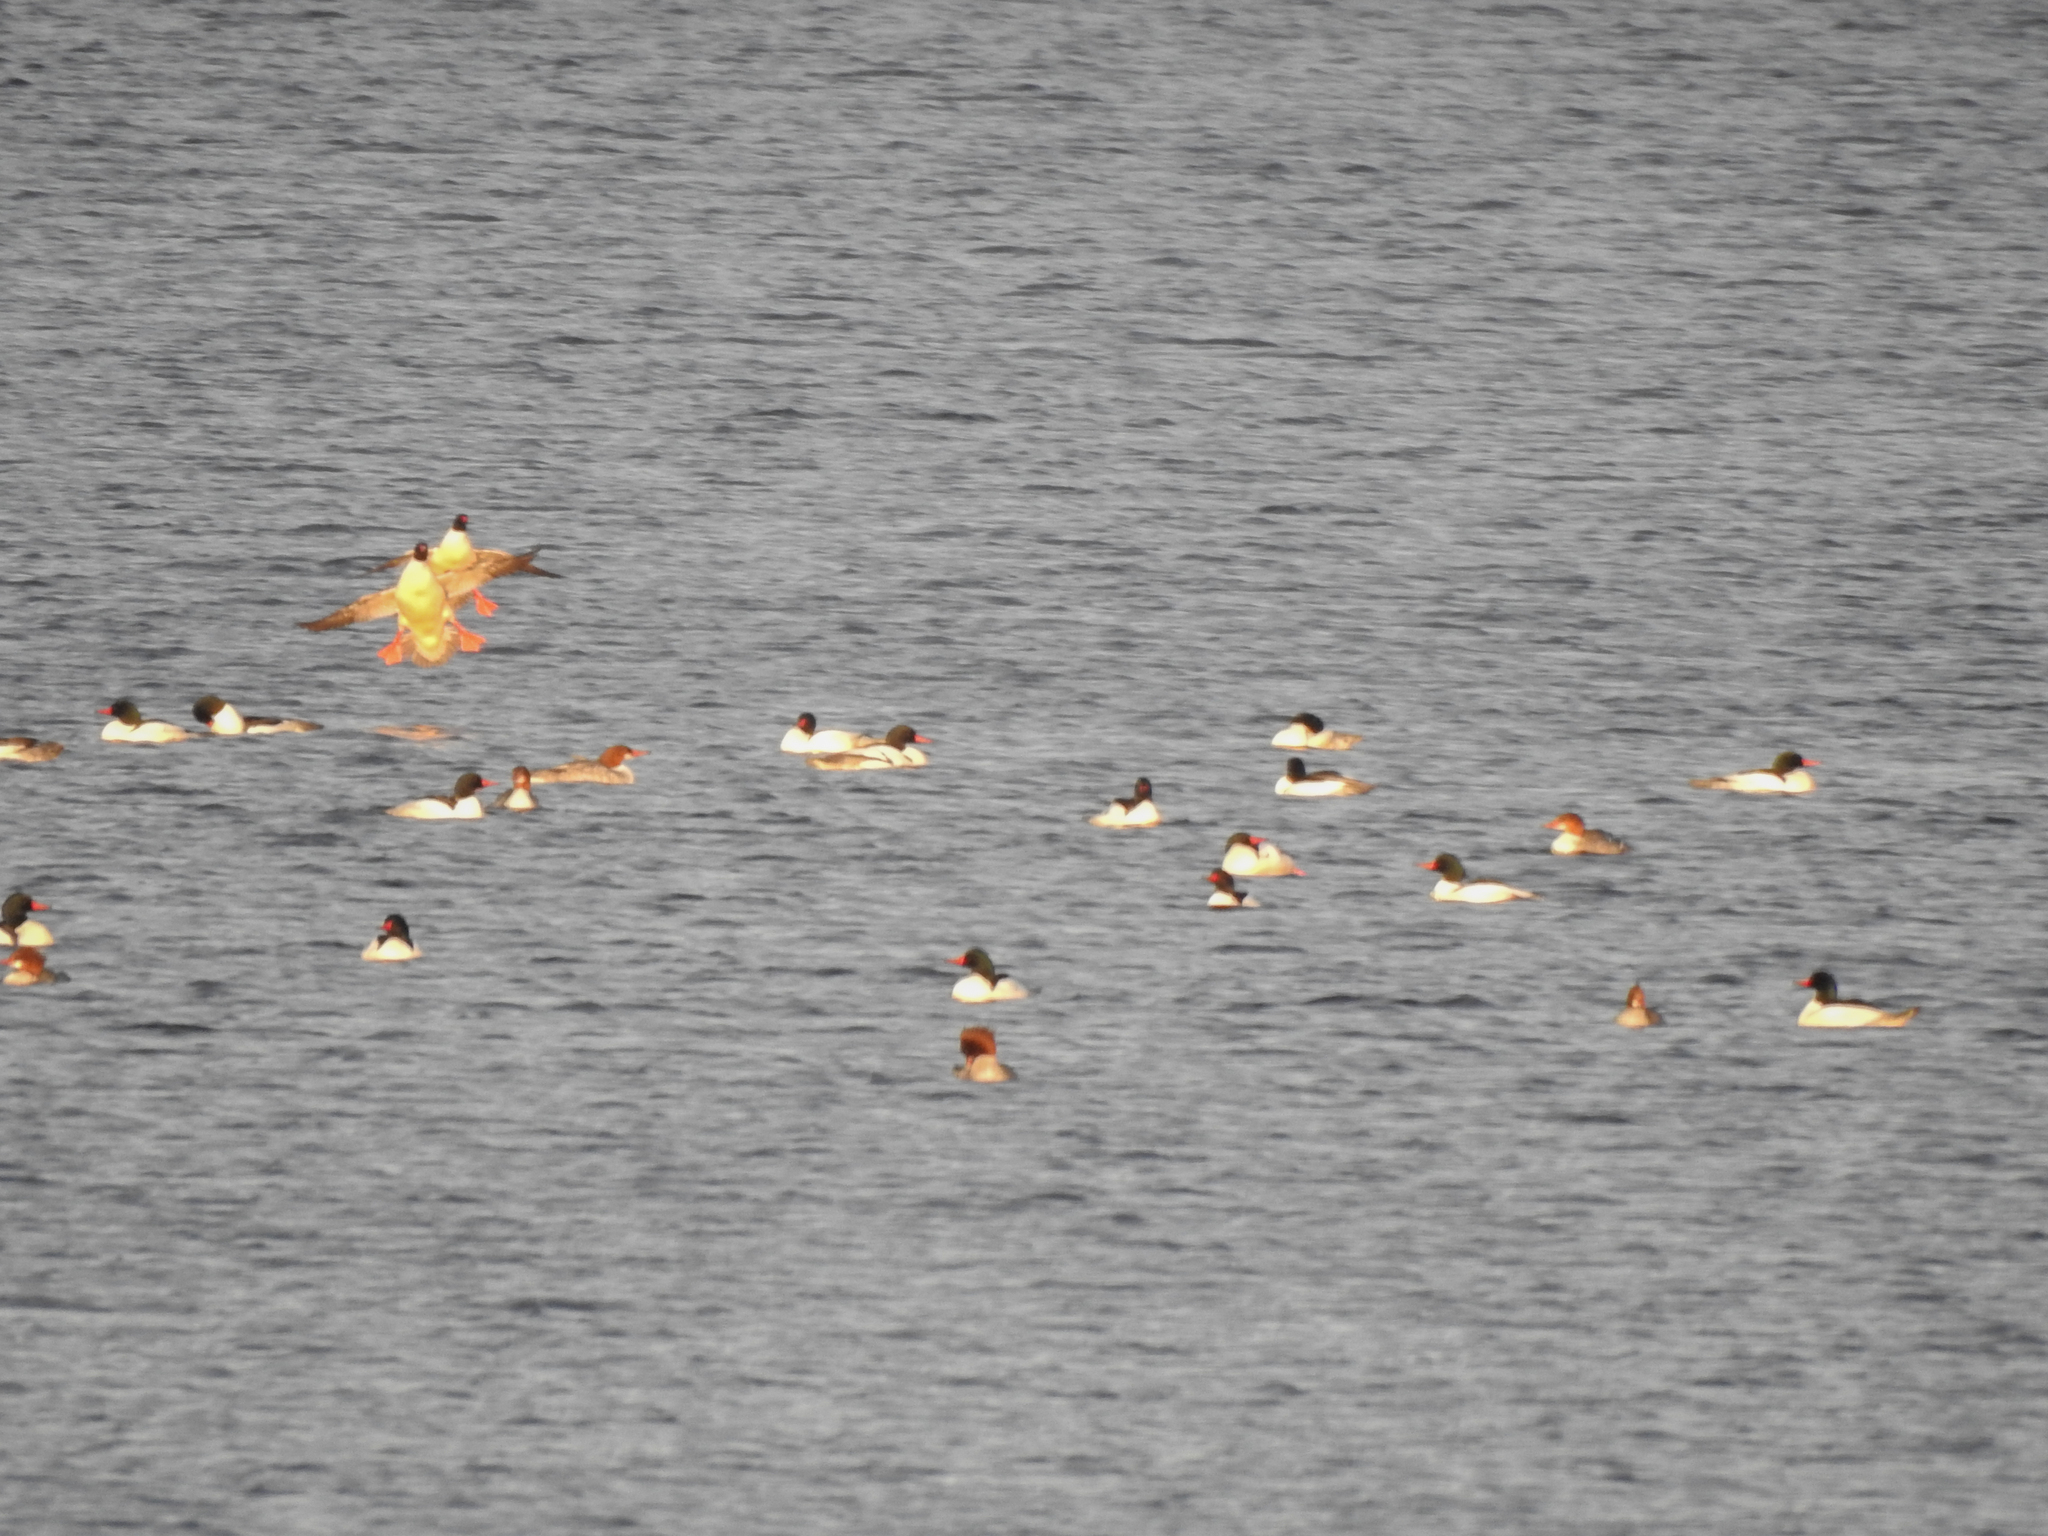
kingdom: Animalia
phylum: Chordata
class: Aves
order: Anseriformes
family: Anatidae
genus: Mergus
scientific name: Mergus merganser
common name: Common merganser
